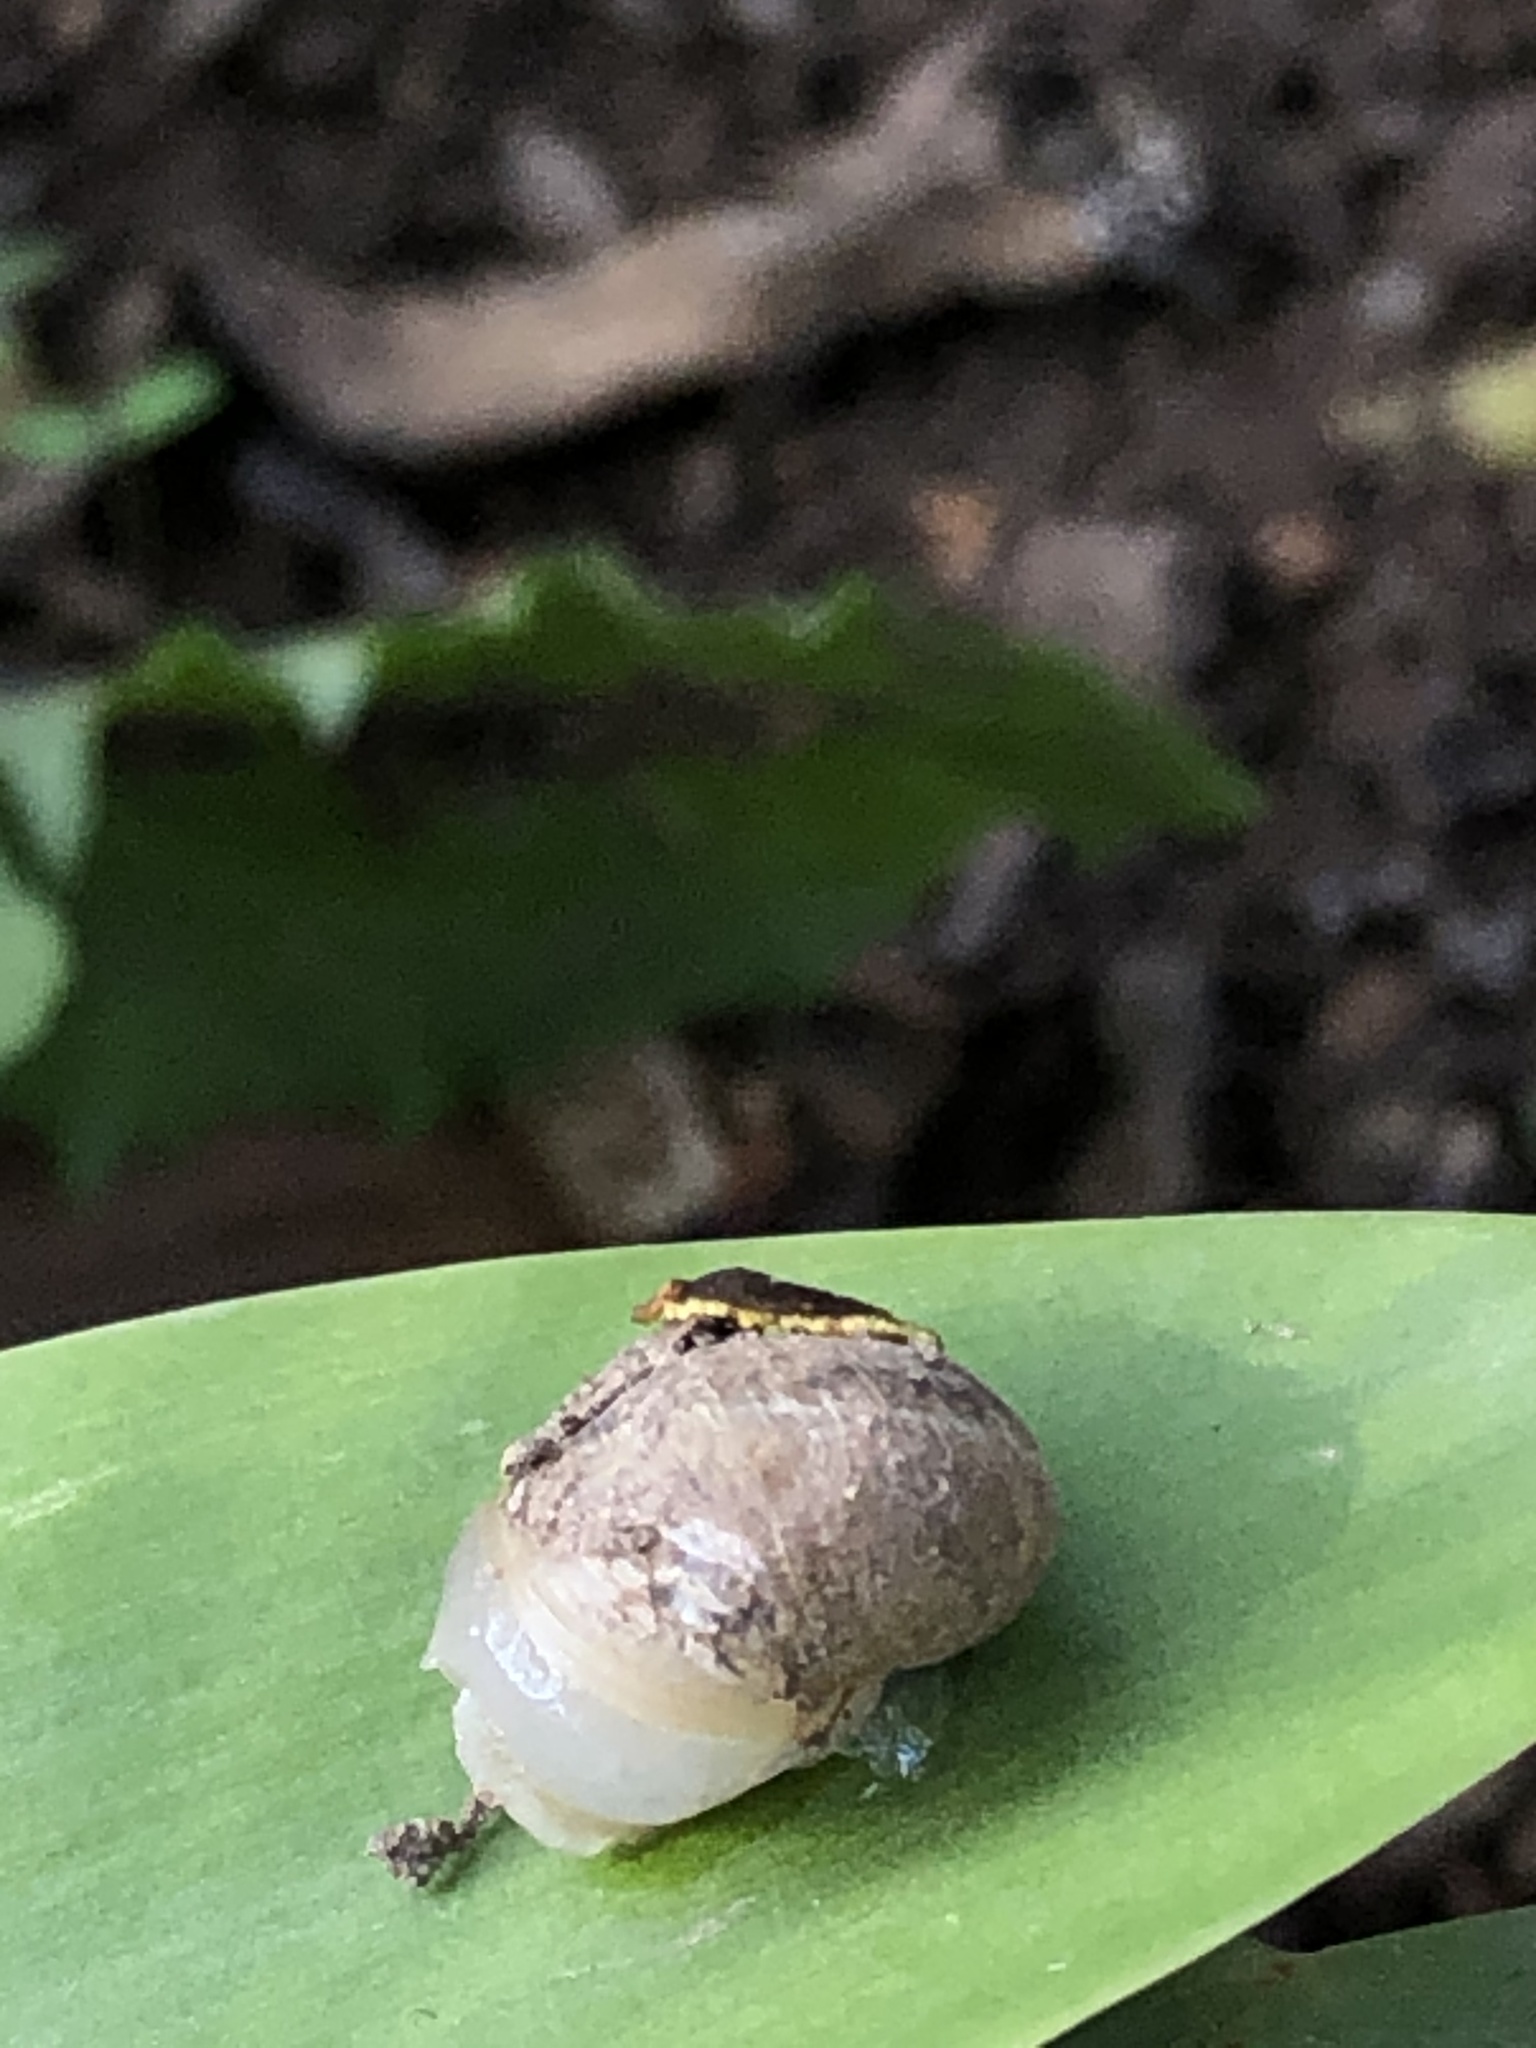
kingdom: Animalia
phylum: Mollusca
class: Gastropoda
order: Stylommatophora
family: Helicidae
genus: Cornu
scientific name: Cornu aspersum
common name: Brown garden snail
